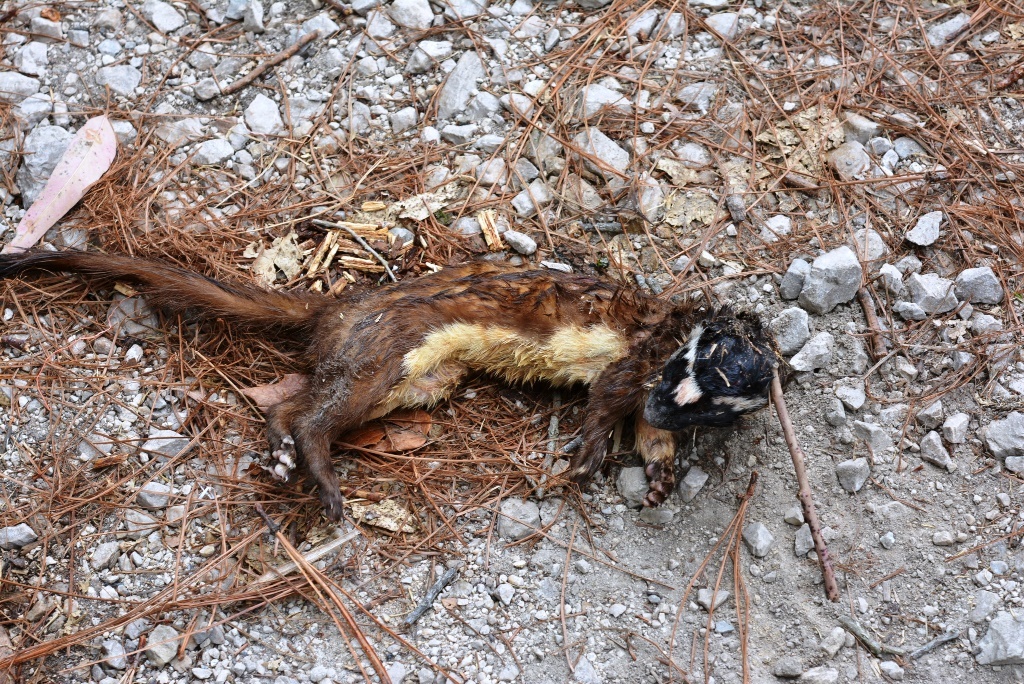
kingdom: Animalia
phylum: Chordata
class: Mammalia
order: Carnivora
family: Mustelidae
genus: Mustela
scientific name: Mustela
